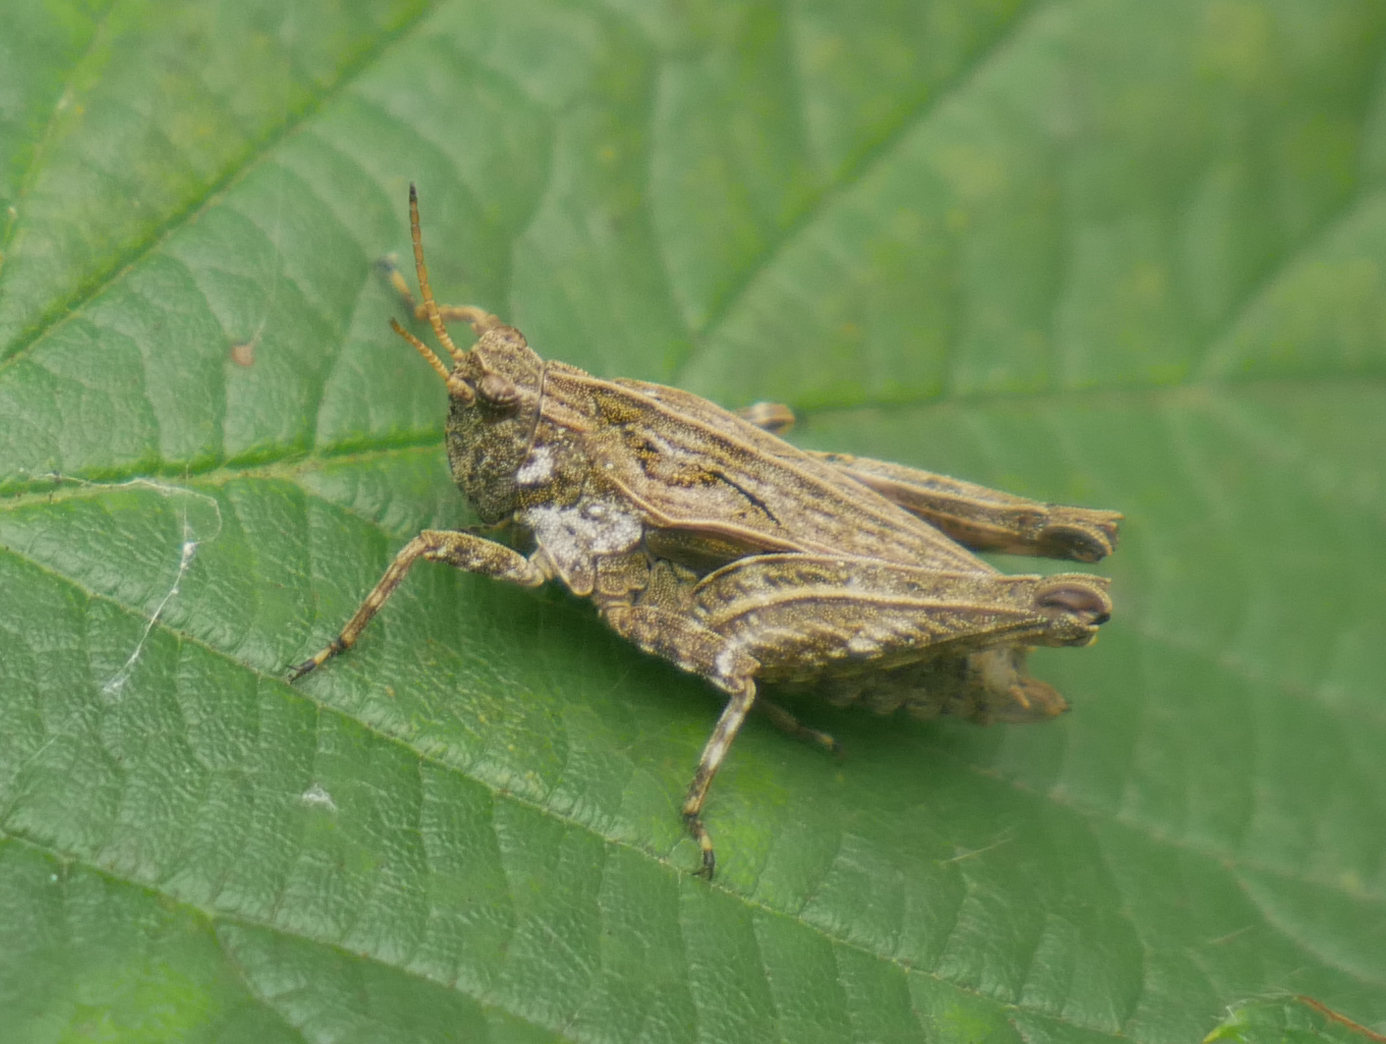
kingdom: Animalia
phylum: Arthropoda
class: Insecta
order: Orthoptera
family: Tetrigidae
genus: Tetrix
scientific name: Tetrix undulata
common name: Common groundhopper
